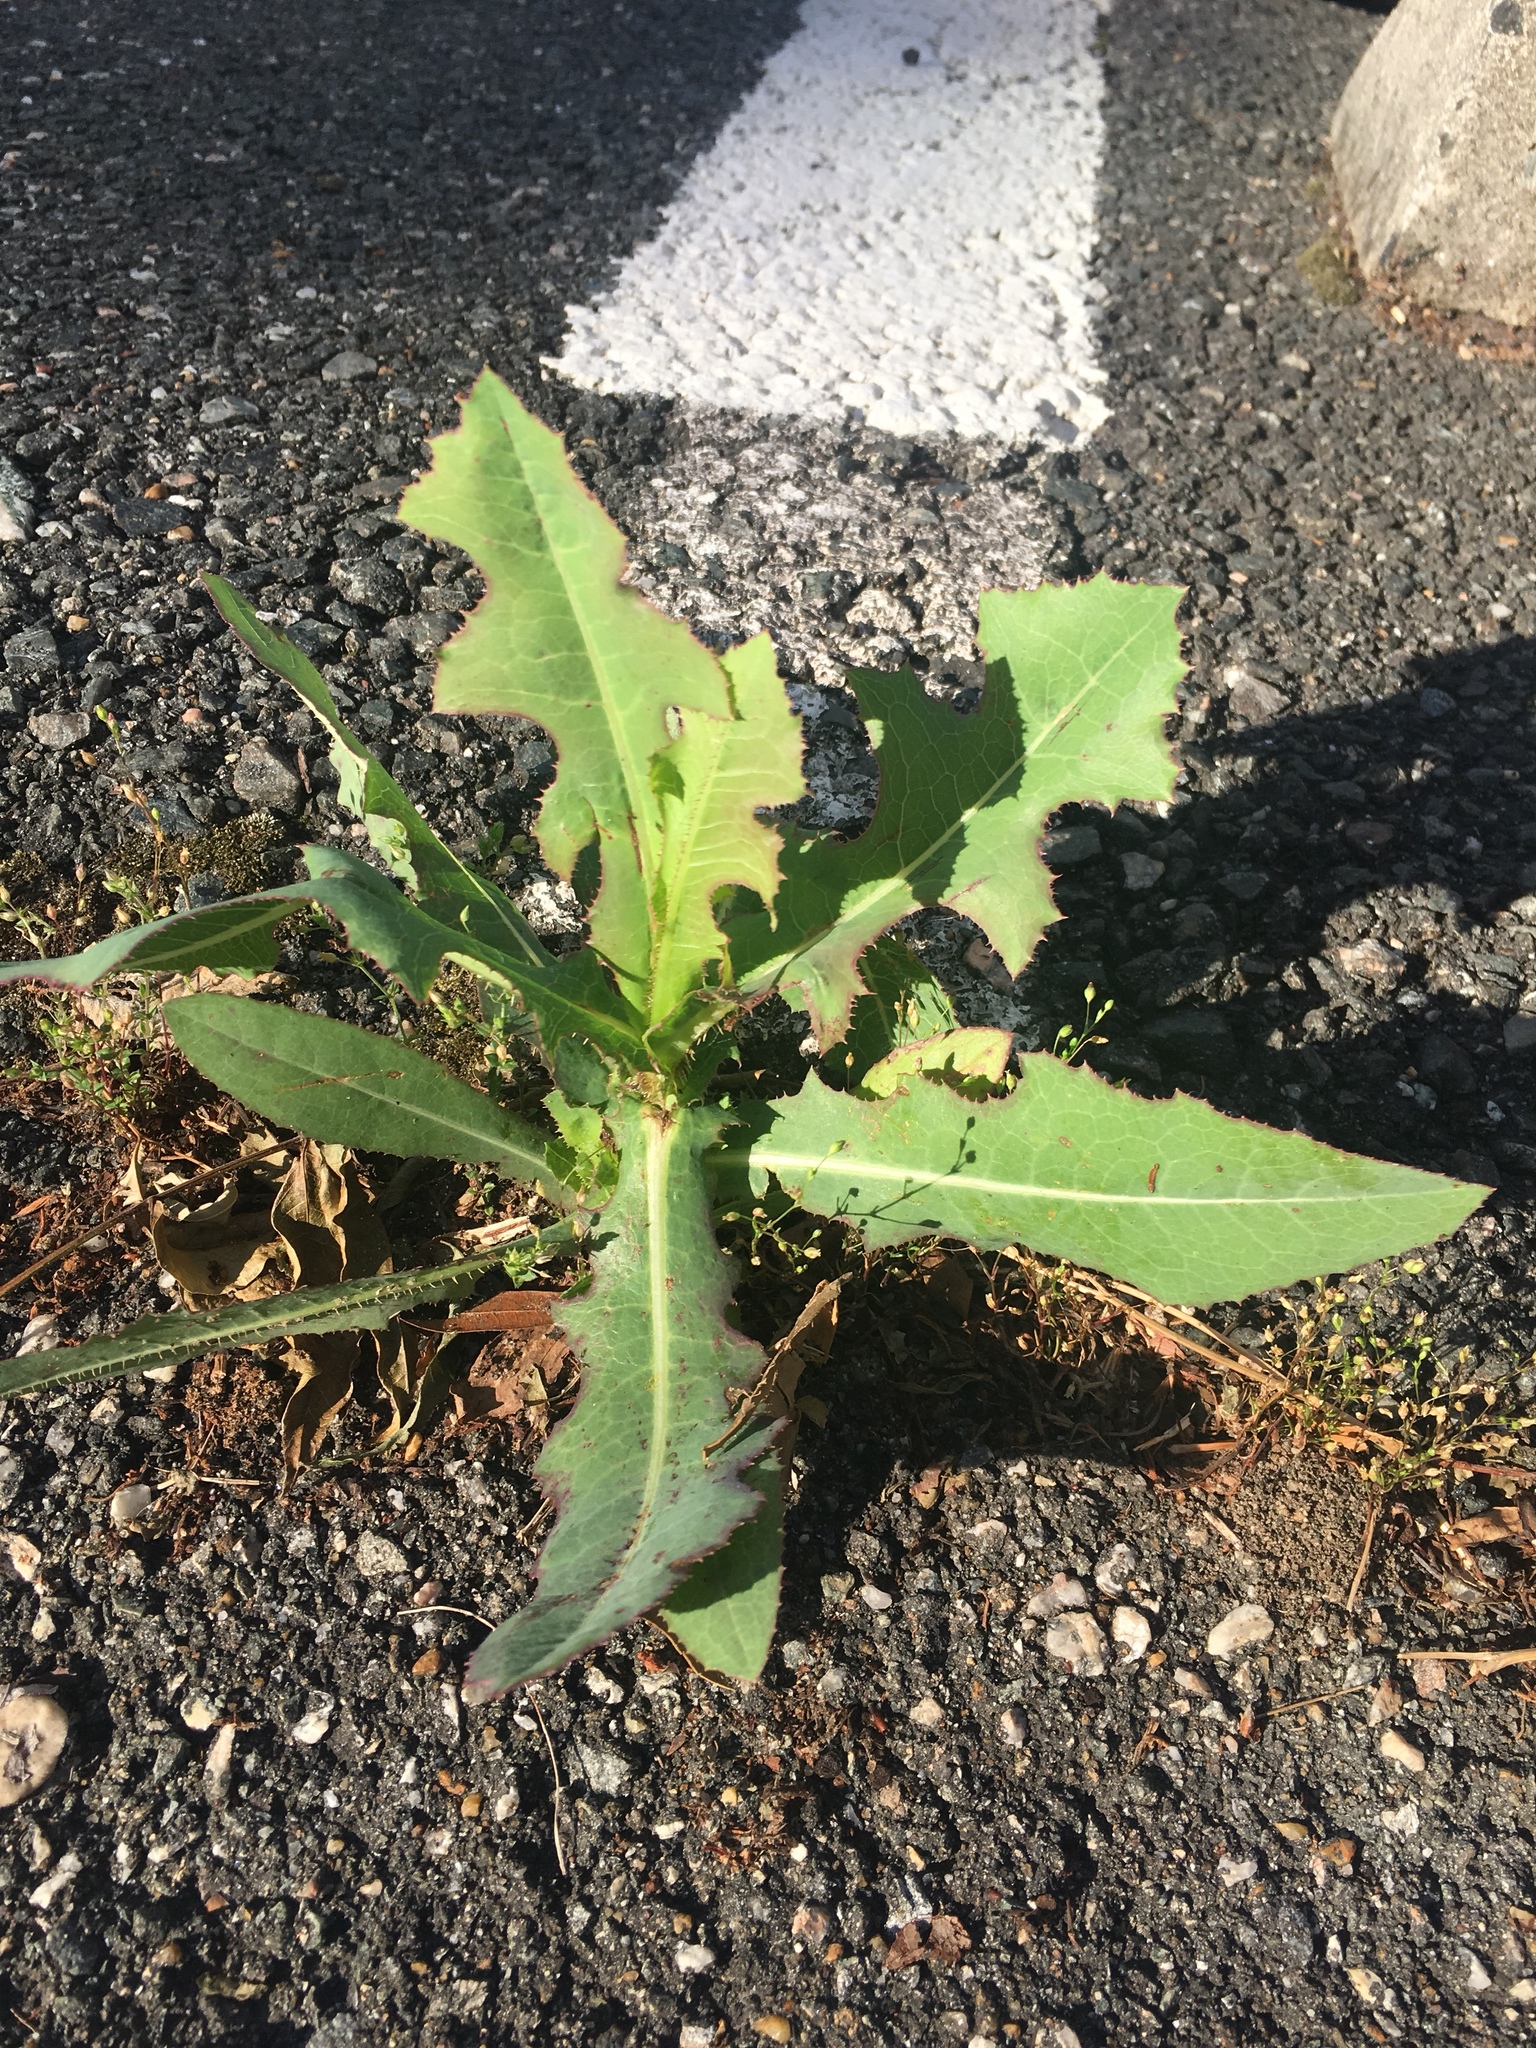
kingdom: Plantae
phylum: Tracheophyta
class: Magnoliopsida
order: Asterales
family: Asteraceae
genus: Lactuca
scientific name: Lactuca serriola
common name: Prickly lettuce
